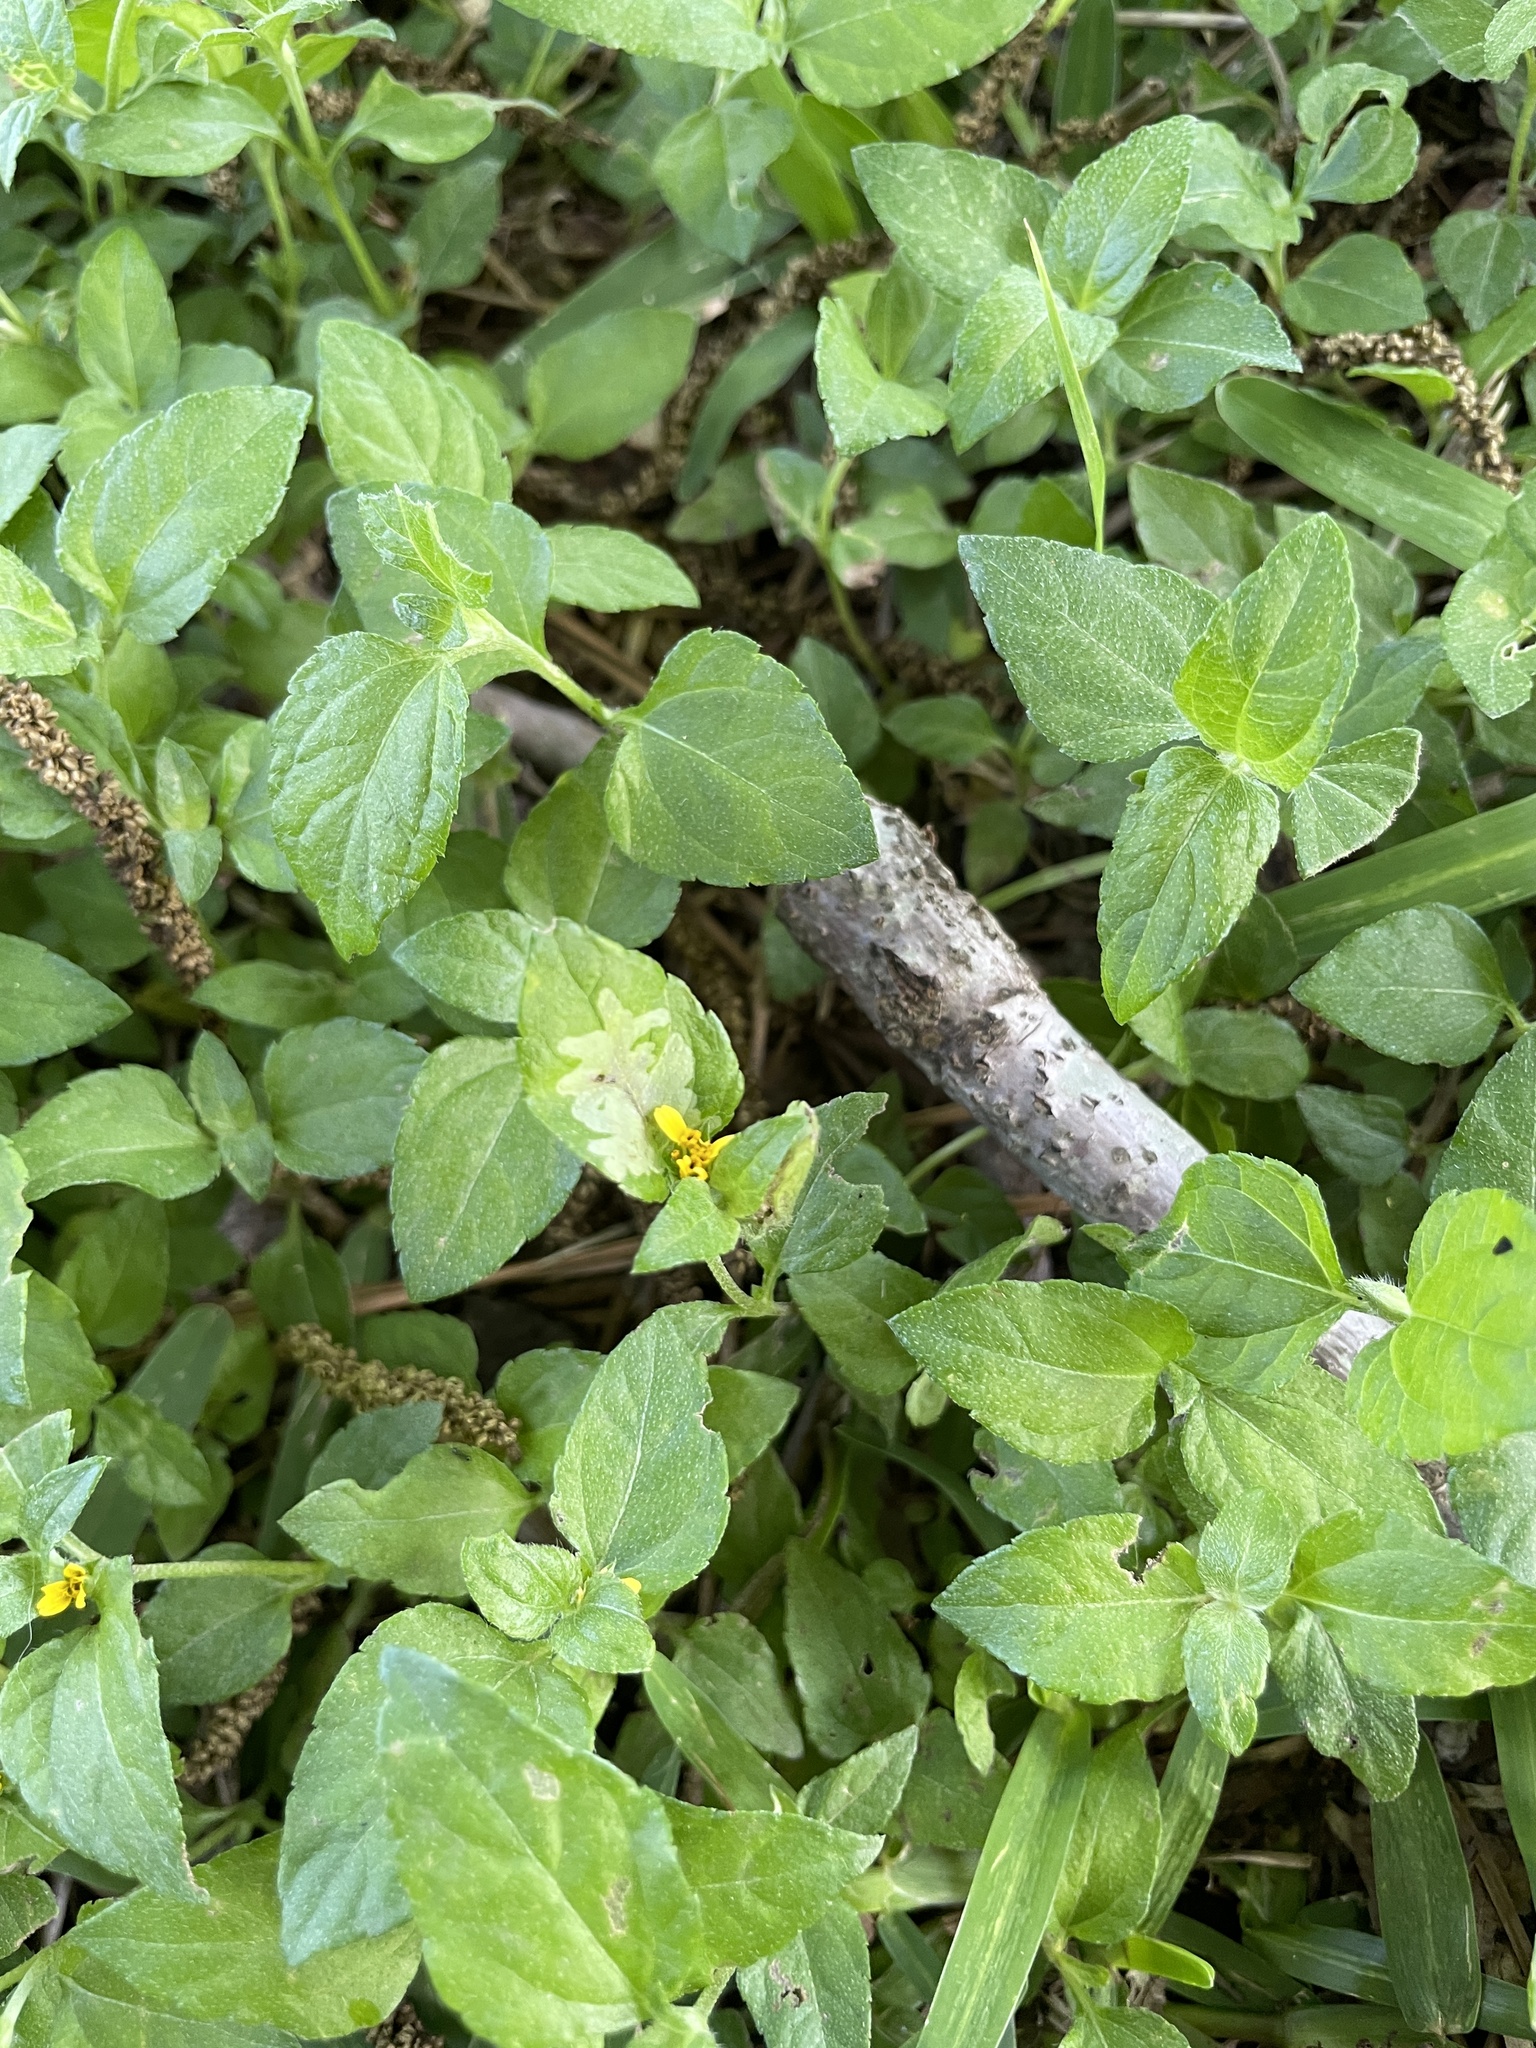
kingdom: Animalia
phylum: Arthropoda
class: Insecta
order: Diptera
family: Agromyzidae
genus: Calycomyza
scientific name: Calycomyza platyptera
